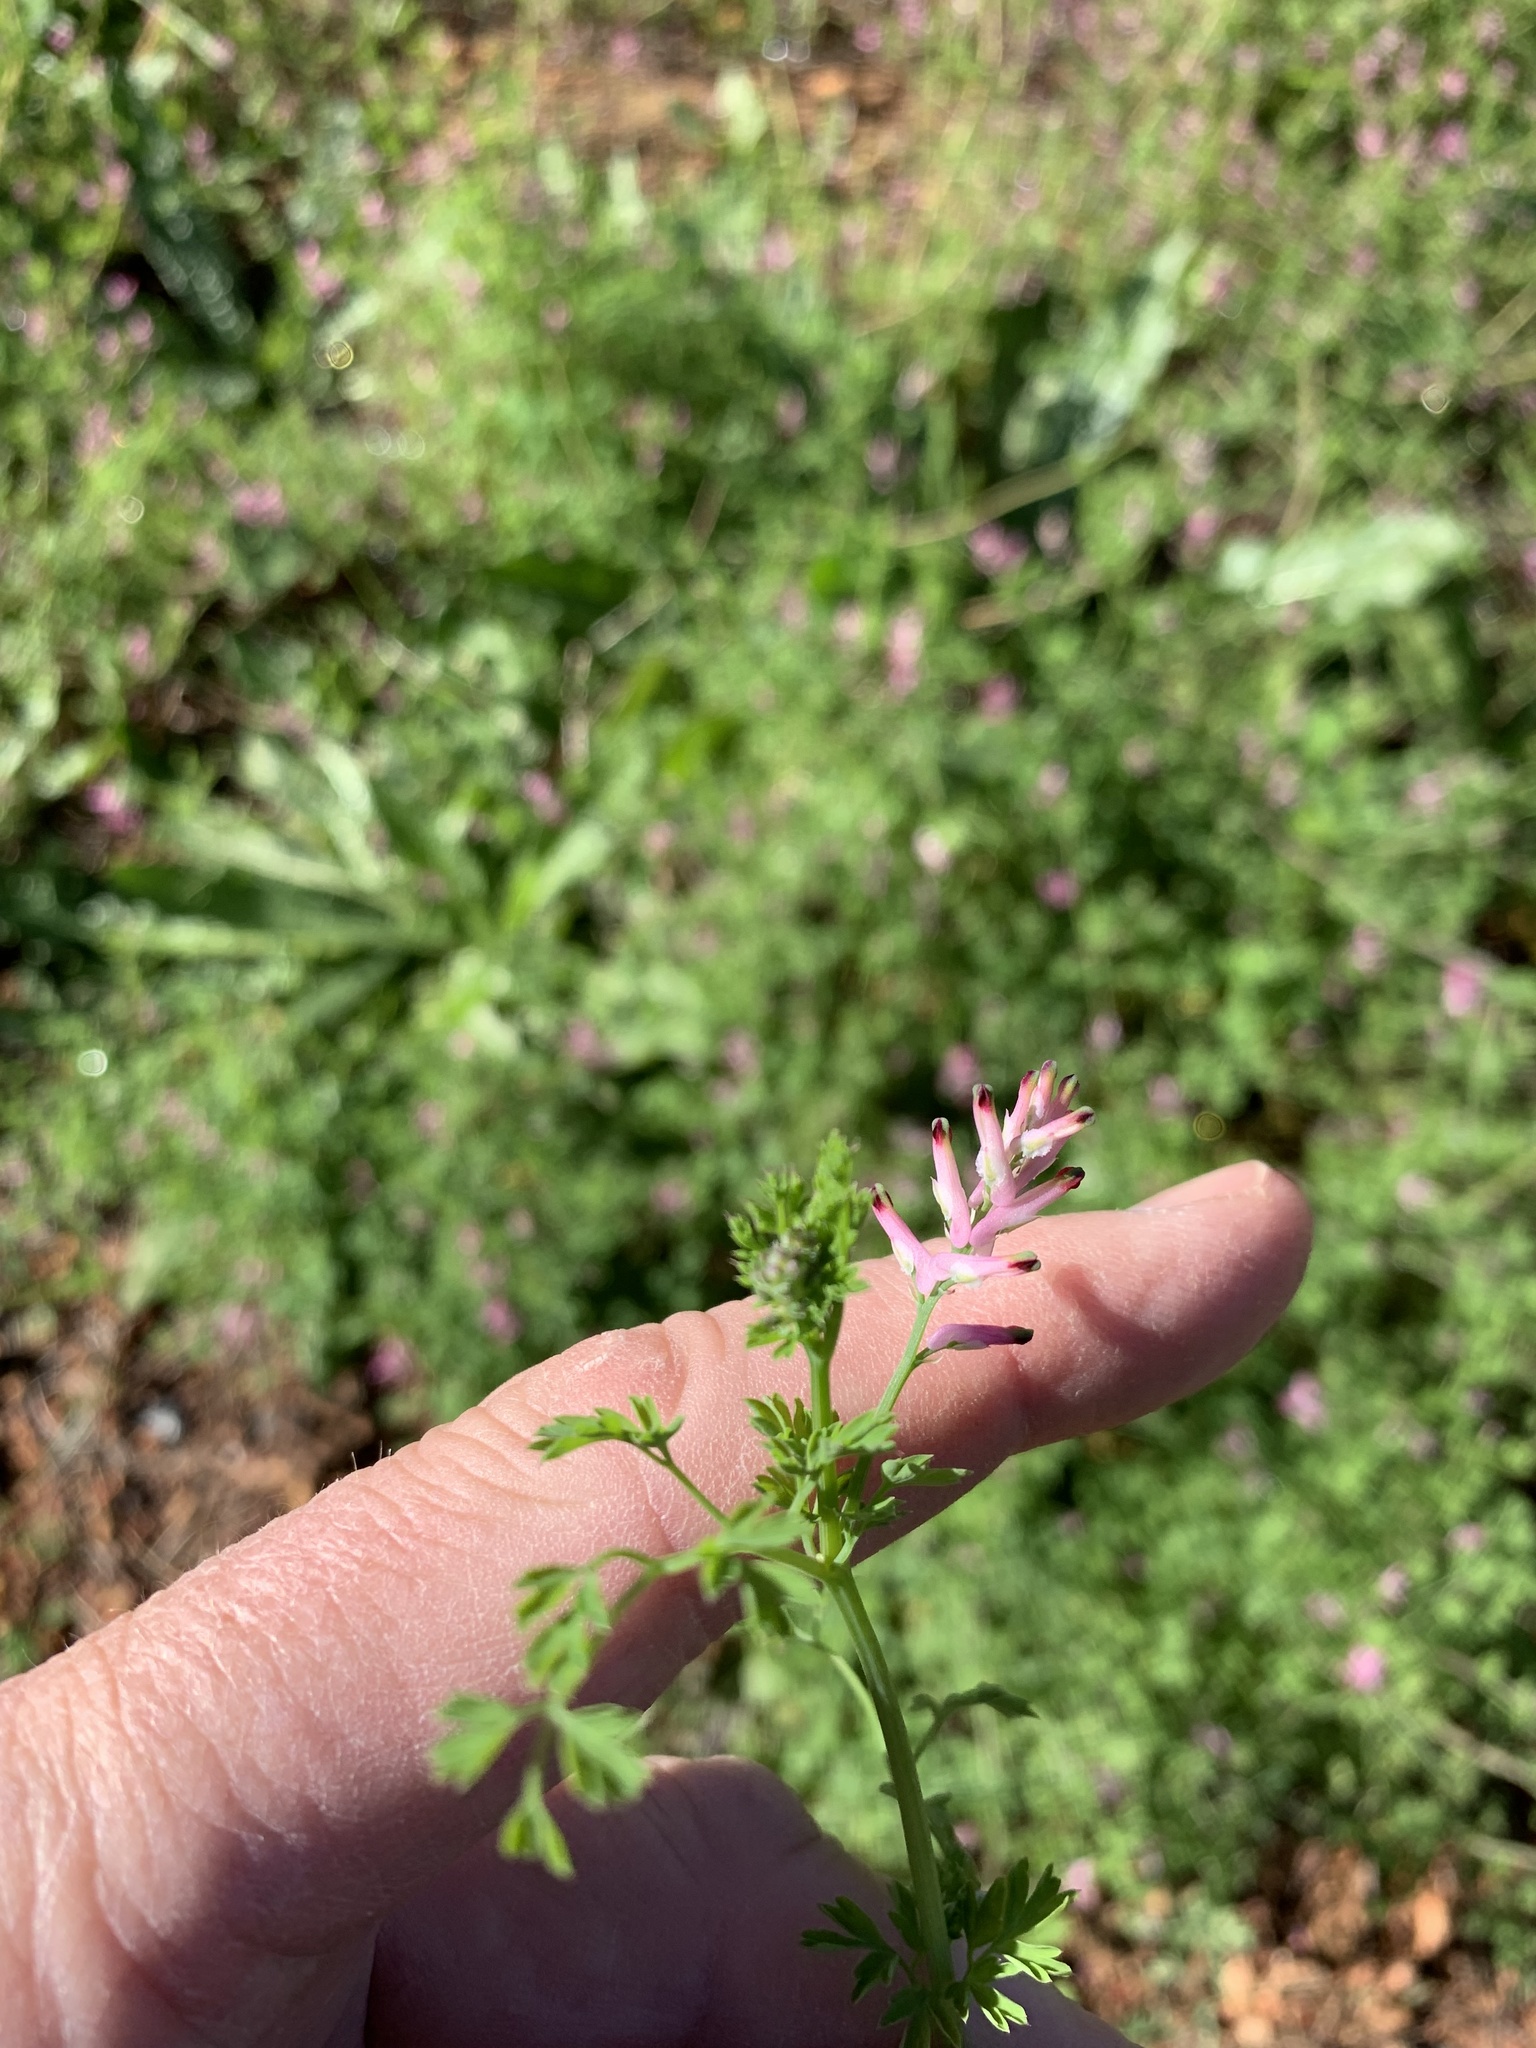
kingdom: Plantae
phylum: Tracheophyta
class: Magnoliopsida
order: Ranunculales
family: Papaveraceae
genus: Fumaria
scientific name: Fumaria muralis
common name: Common ramping-fumitory
